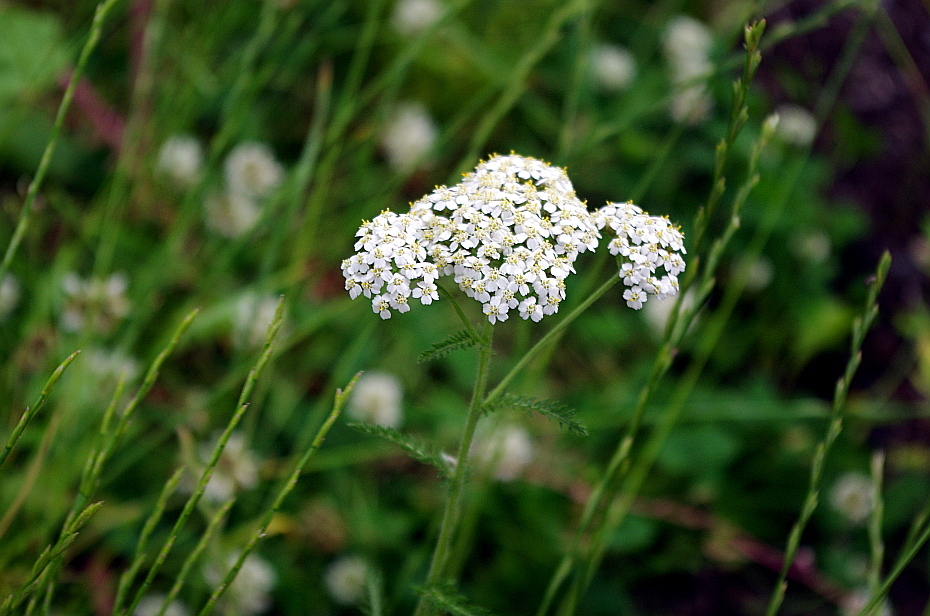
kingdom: Plantae
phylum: Tracheophyta
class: Magnoliopsida
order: Asterales
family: Asteraceae
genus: Achillea
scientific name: Achillea millefolium
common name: Yarrow
